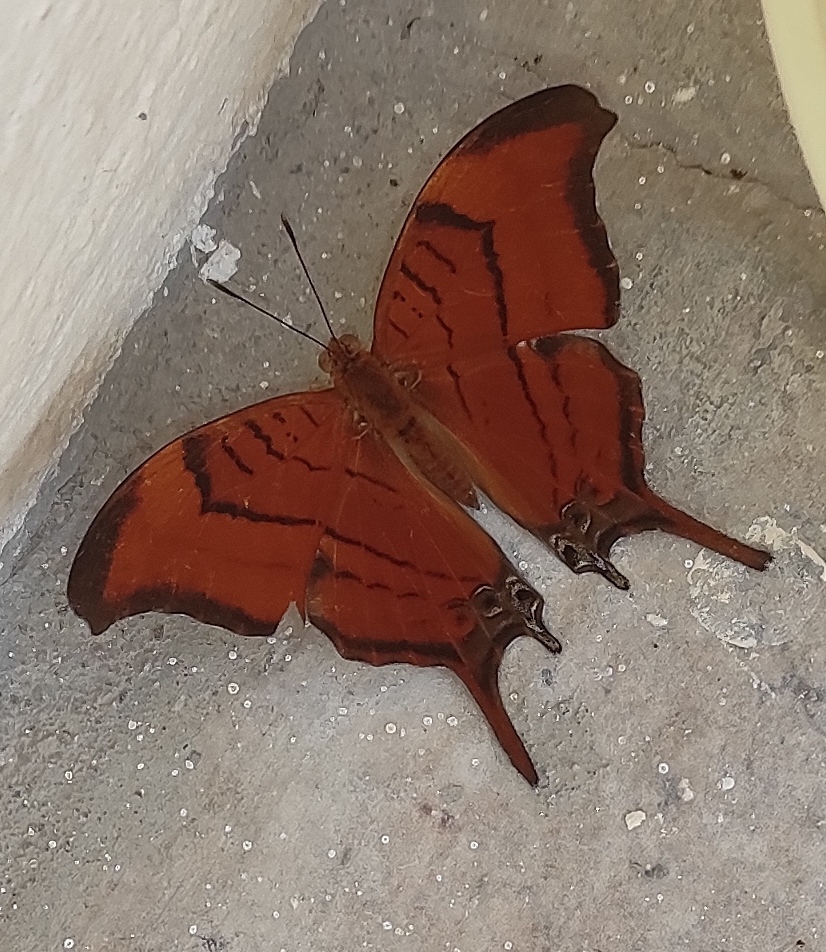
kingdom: Animalia
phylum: Arthropoda
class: Insecta
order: Lepidoptera
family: Nymphalidae
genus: Marpesia
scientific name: Marpesia eleuchea
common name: Antillean daggerwing
